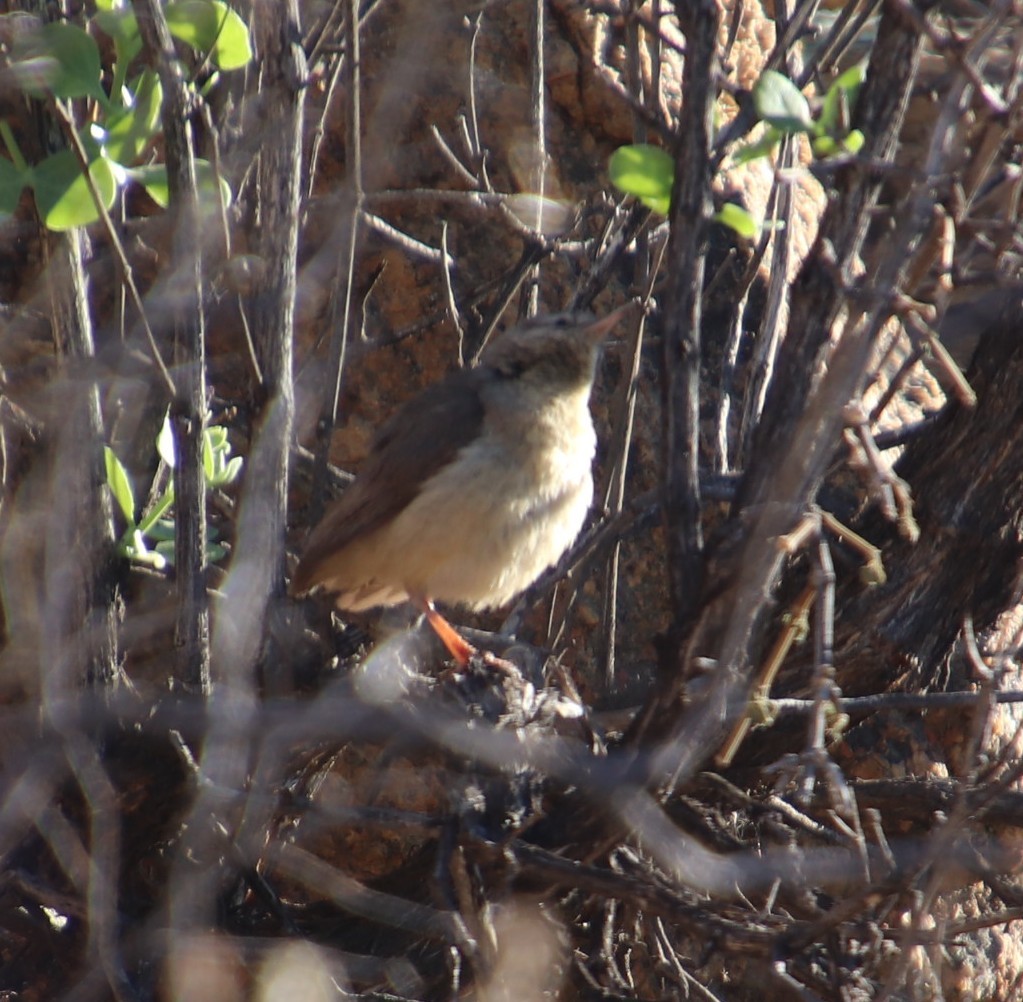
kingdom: Animalia
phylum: Chordata
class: Aves
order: Passeriformes
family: Macrosphenidae
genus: Sylvietta
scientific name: Sylvietta rufescens
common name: Long-billed crombec
